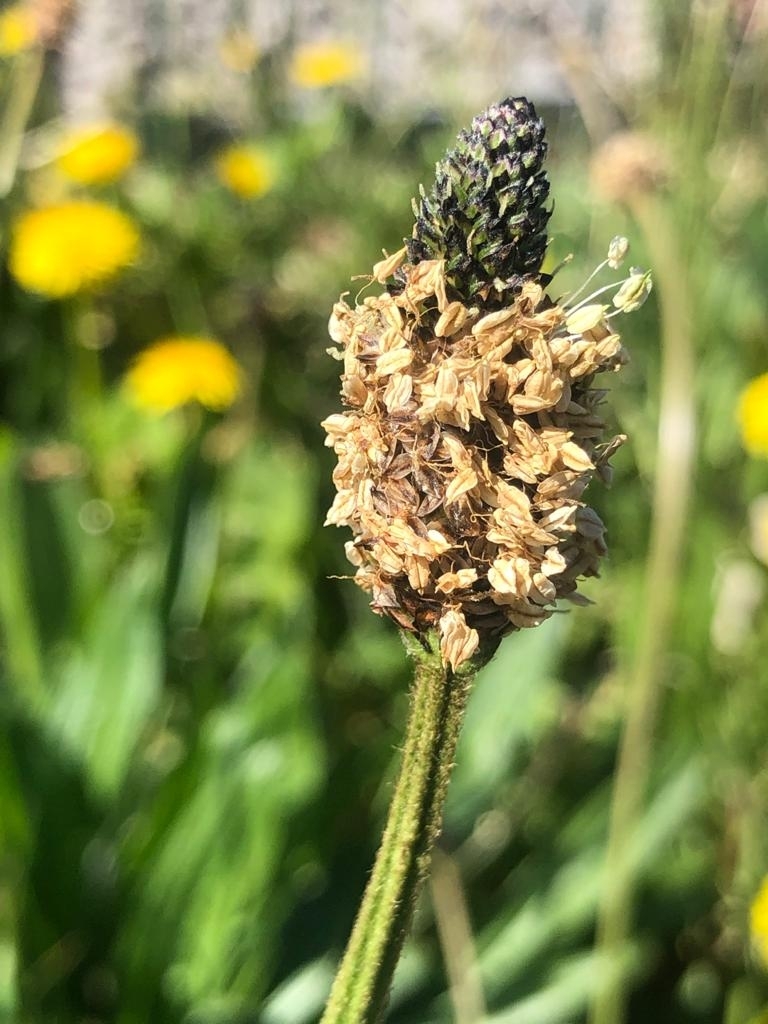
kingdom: Plantae
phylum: Tracheophyta
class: Magnoliopsida
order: Lamiales
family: Plantaginaceae
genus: Plantago
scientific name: Plantago lanceolata
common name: Ribwort plantain
